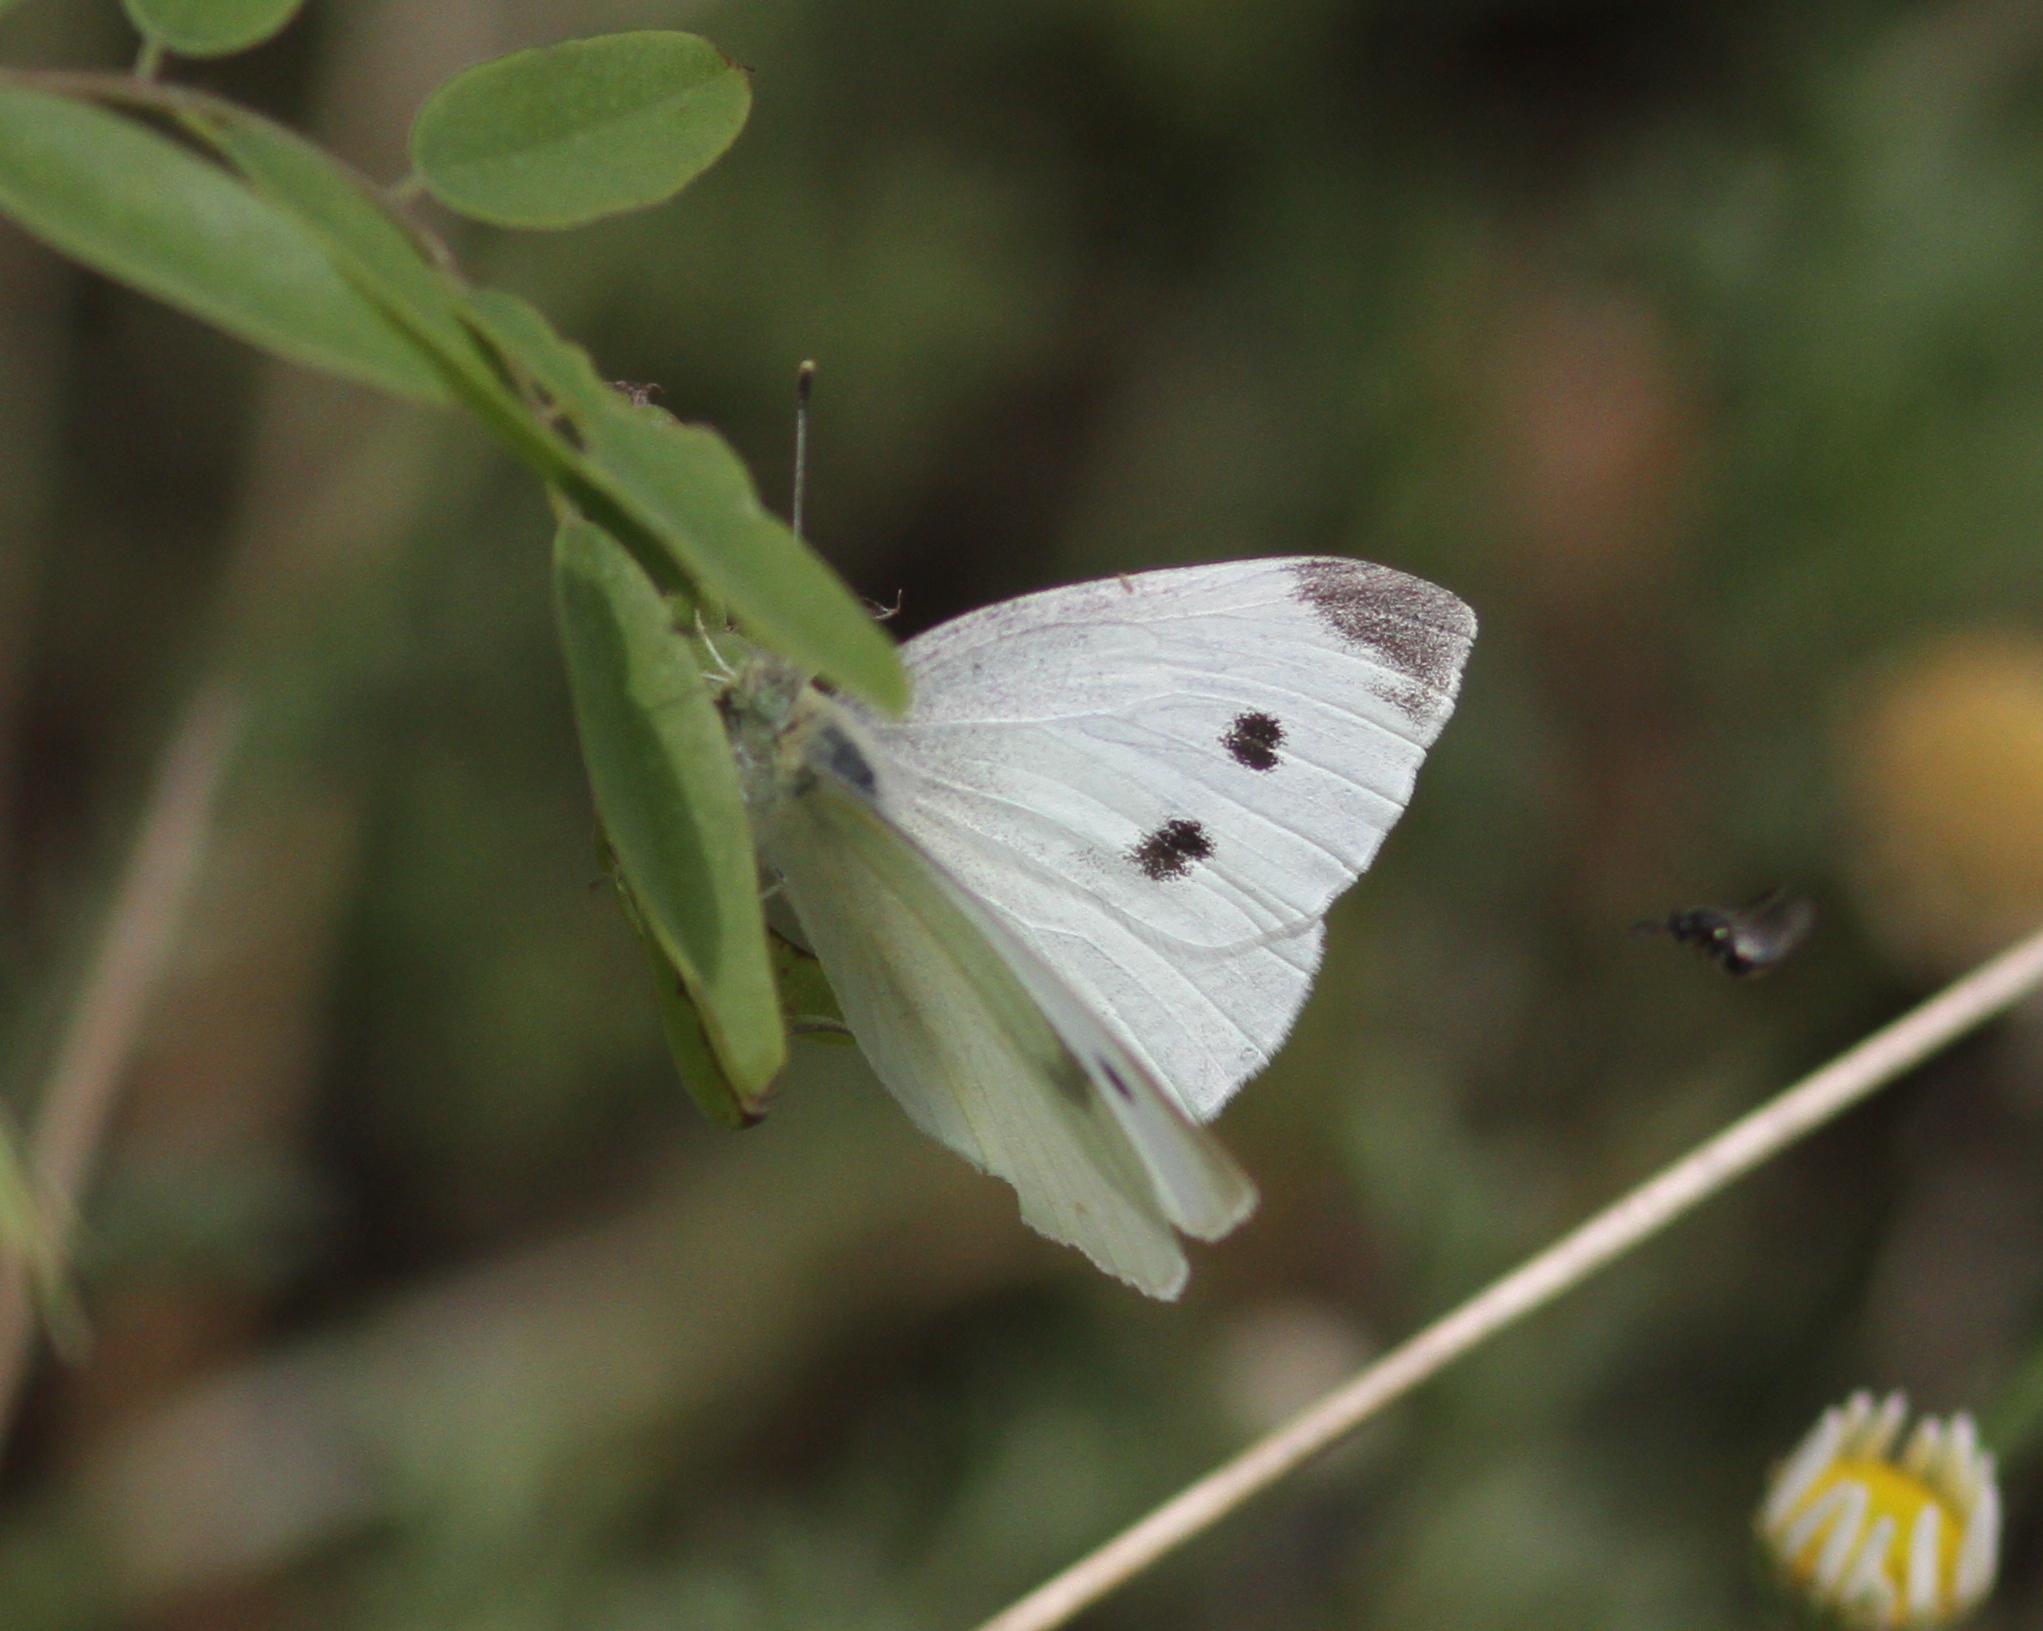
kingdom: Animalia
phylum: Arthropoda
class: Insecta
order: Lepidoptera
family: Pieridae
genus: Pieris
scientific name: Pieris rapae
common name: Small white
